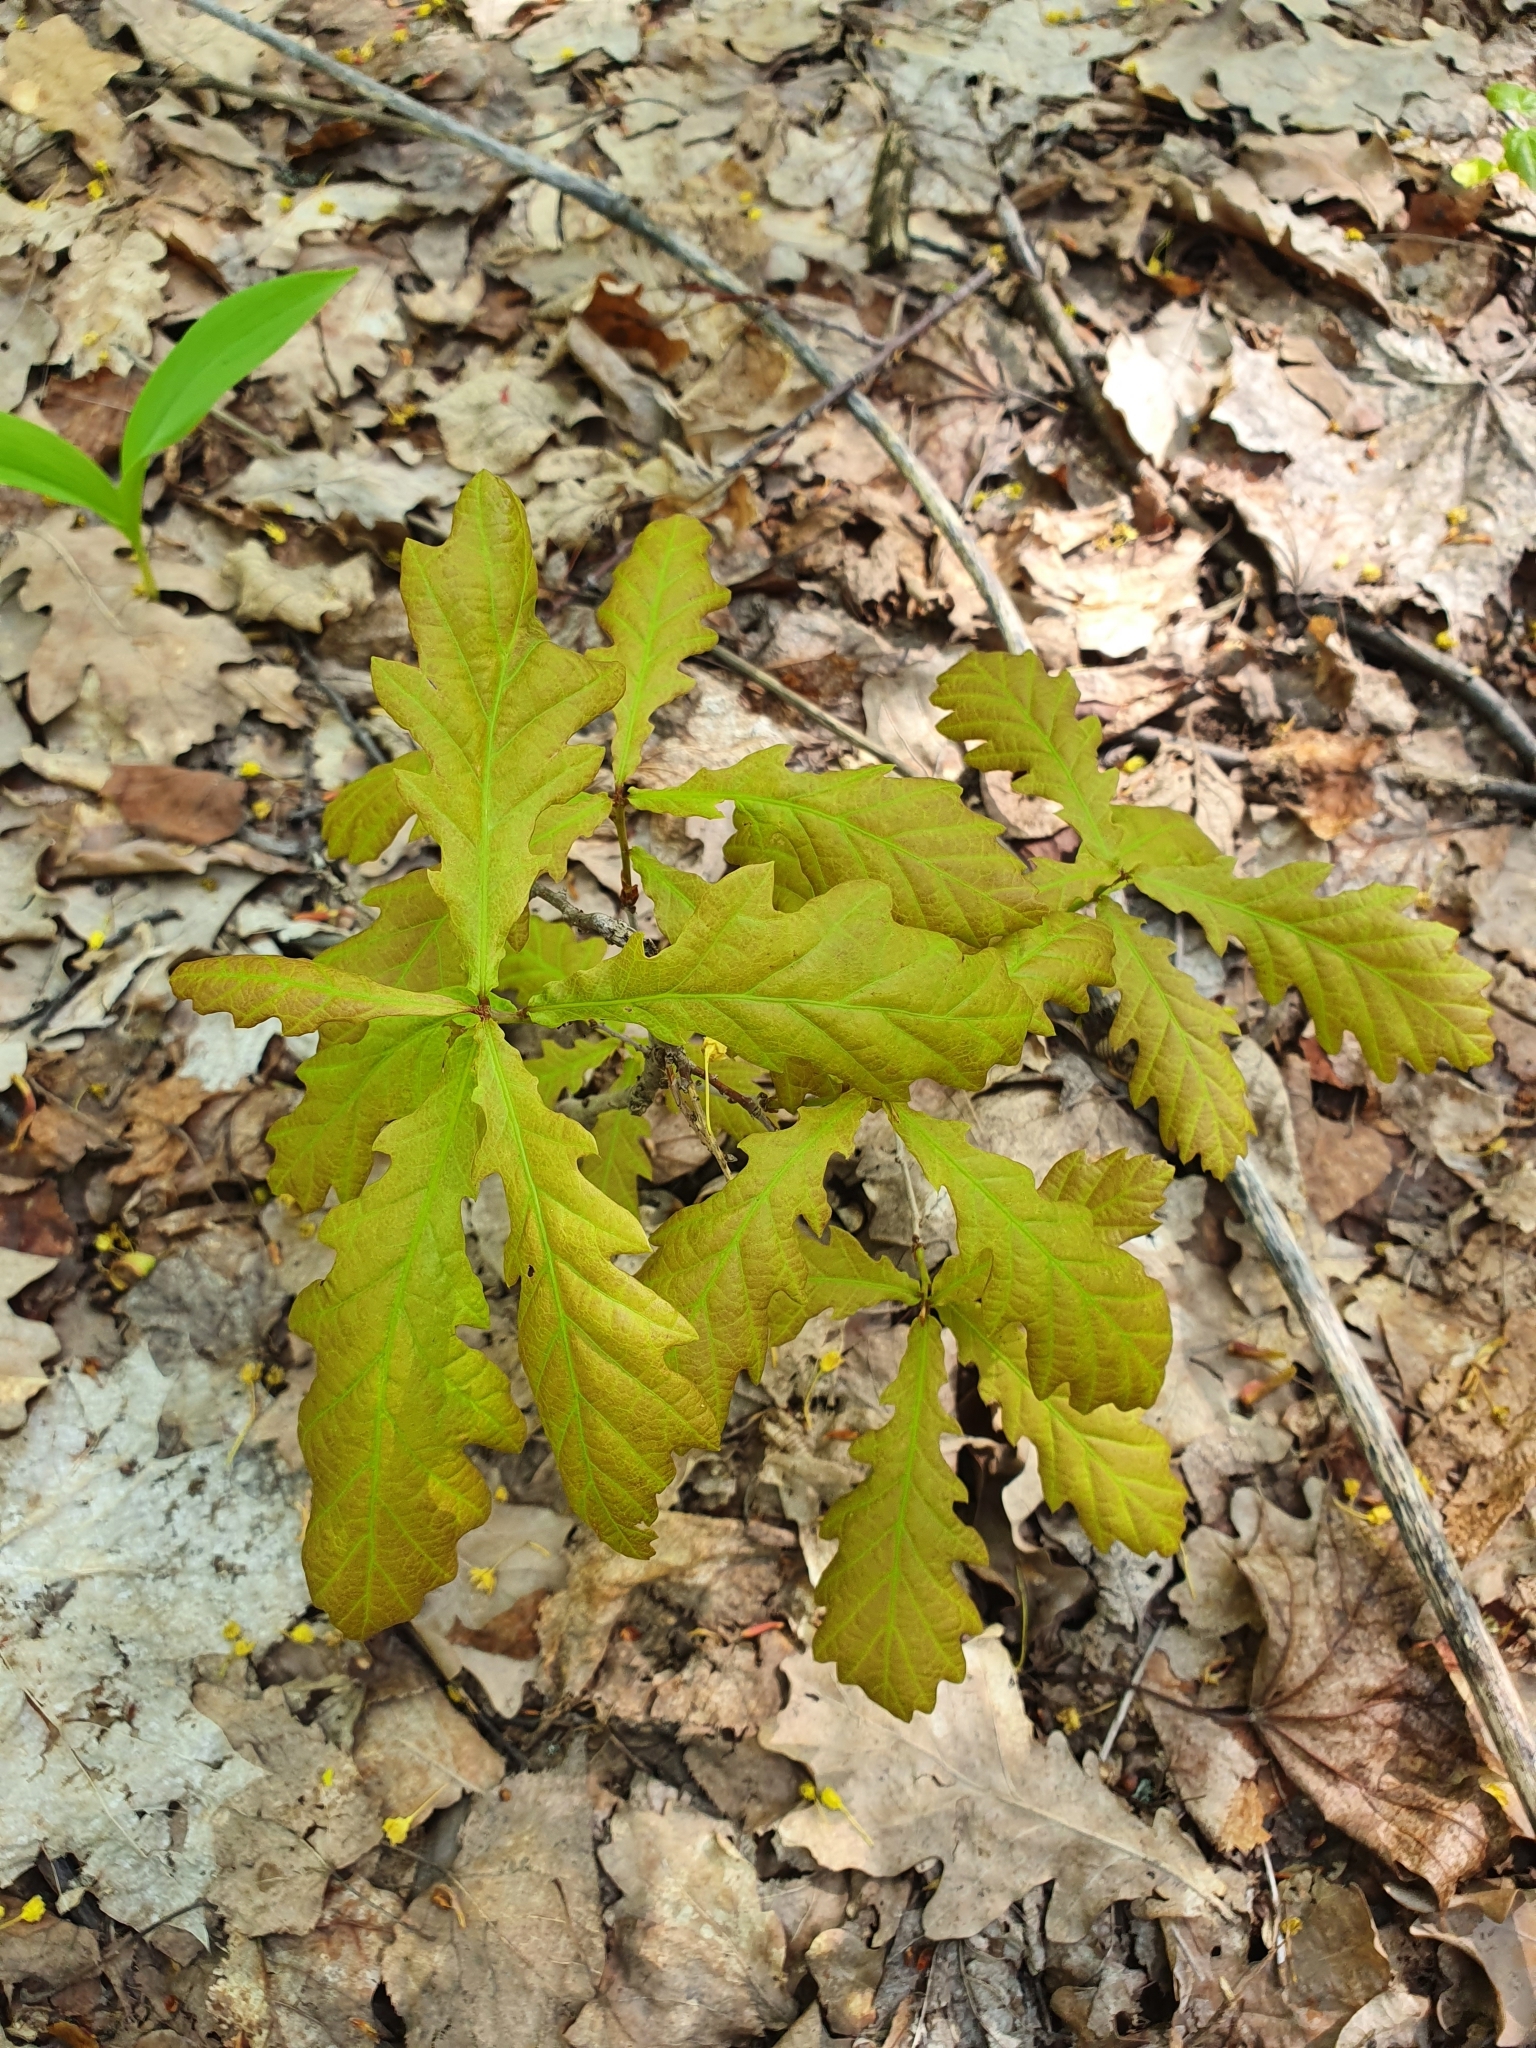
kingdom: Plantae
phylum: Tracheophyta
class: Magnoliopsida
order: Fagales
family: Fagaceae
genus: Quercus
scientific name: Quercus robur
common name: Pedunculate oak
